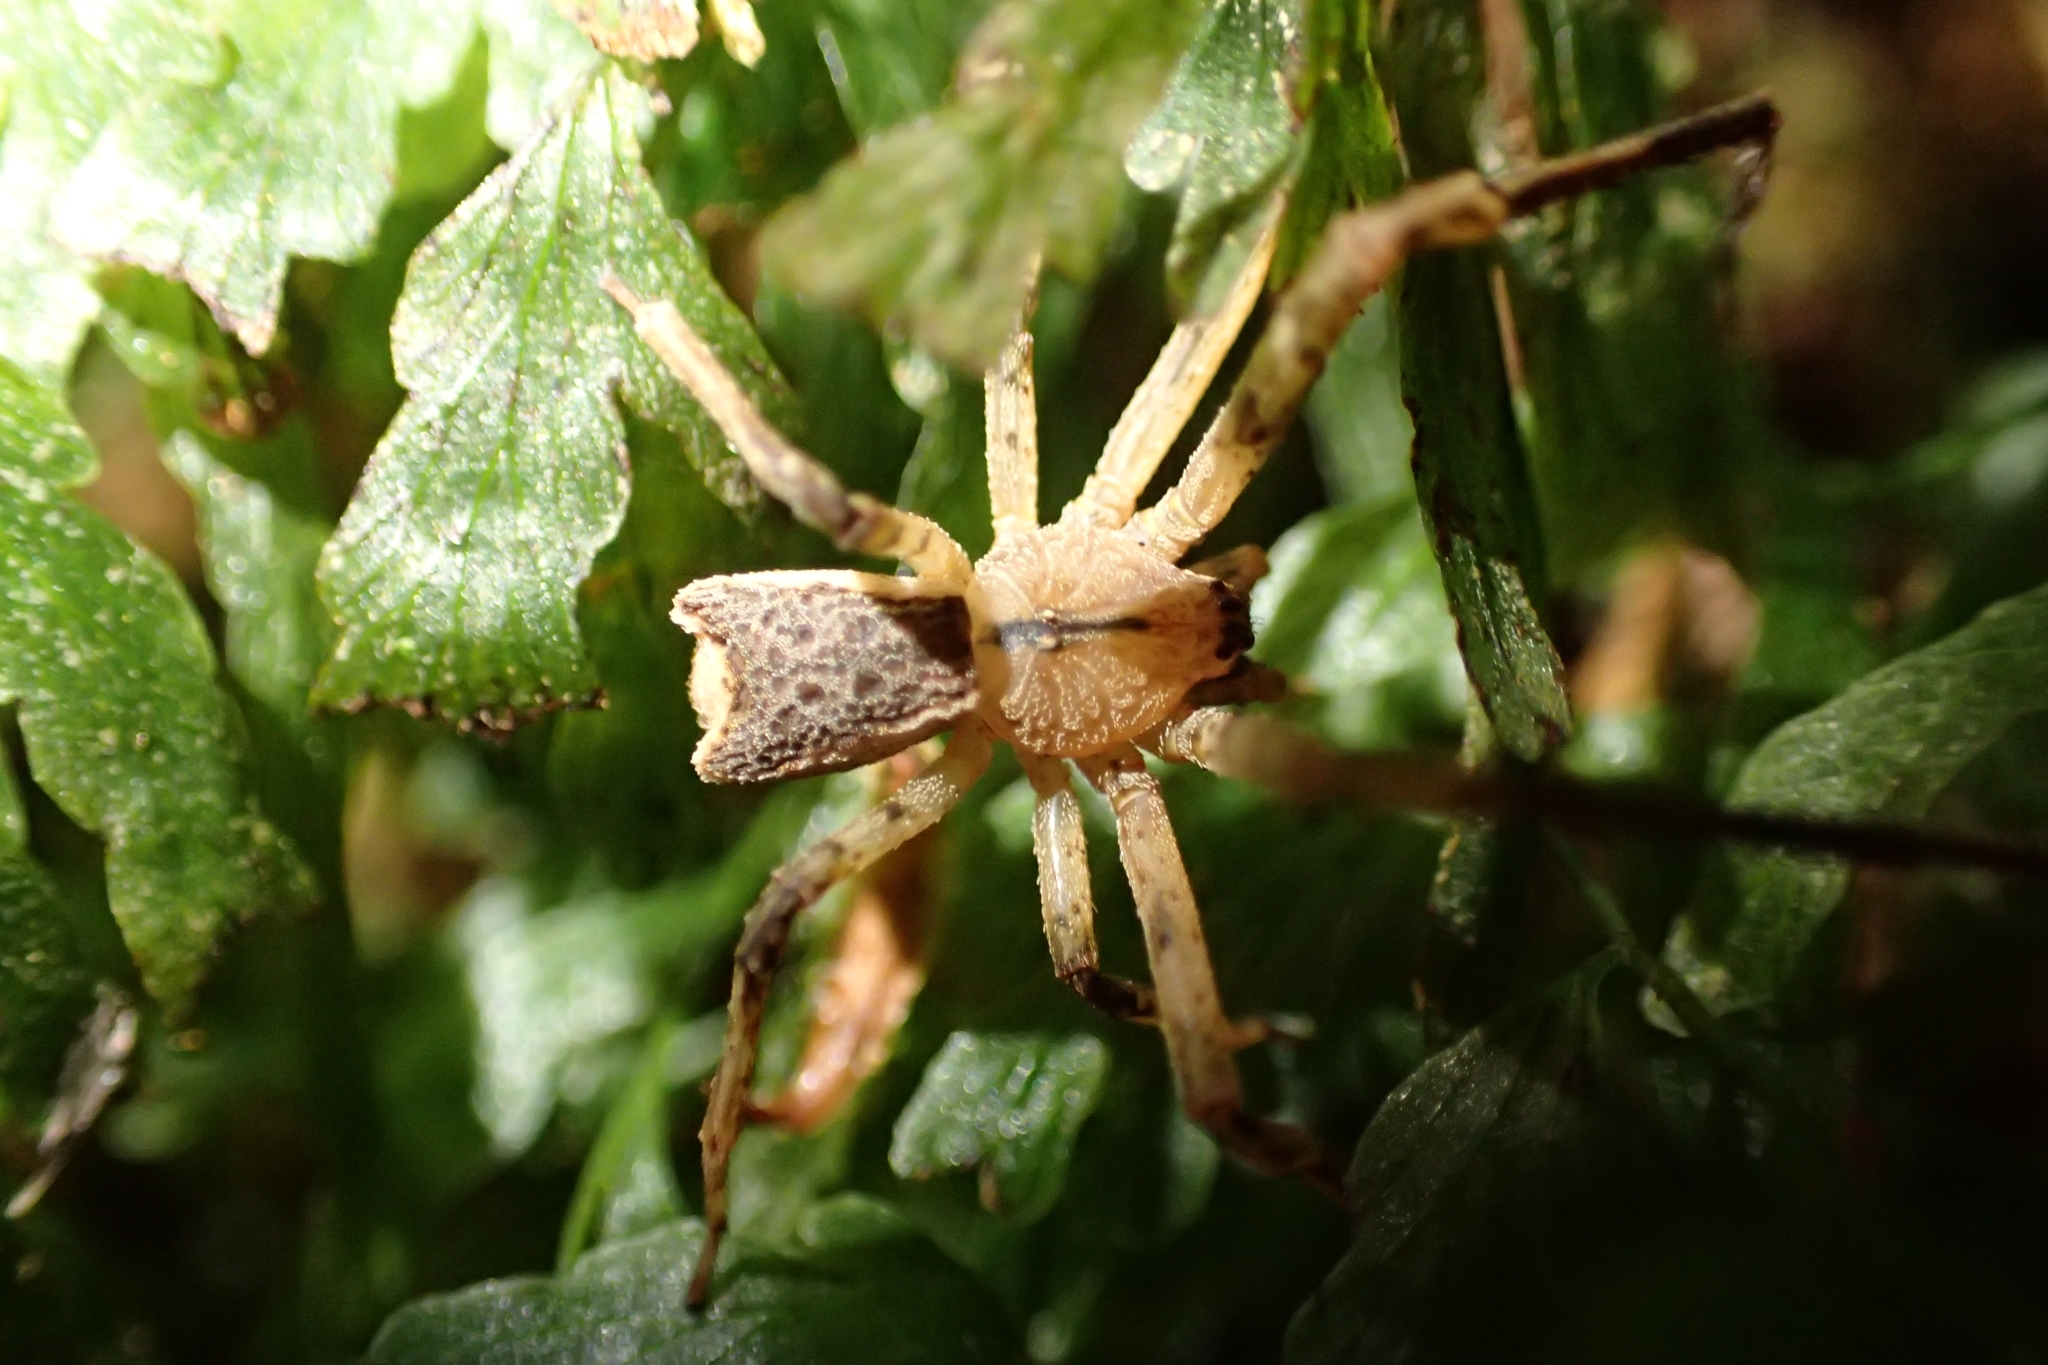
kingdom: Animalia
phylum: Arthropoda
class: Arachnida
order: Araneae
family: Thomisidae
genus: Sidymella
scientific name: Sidymella angularis
